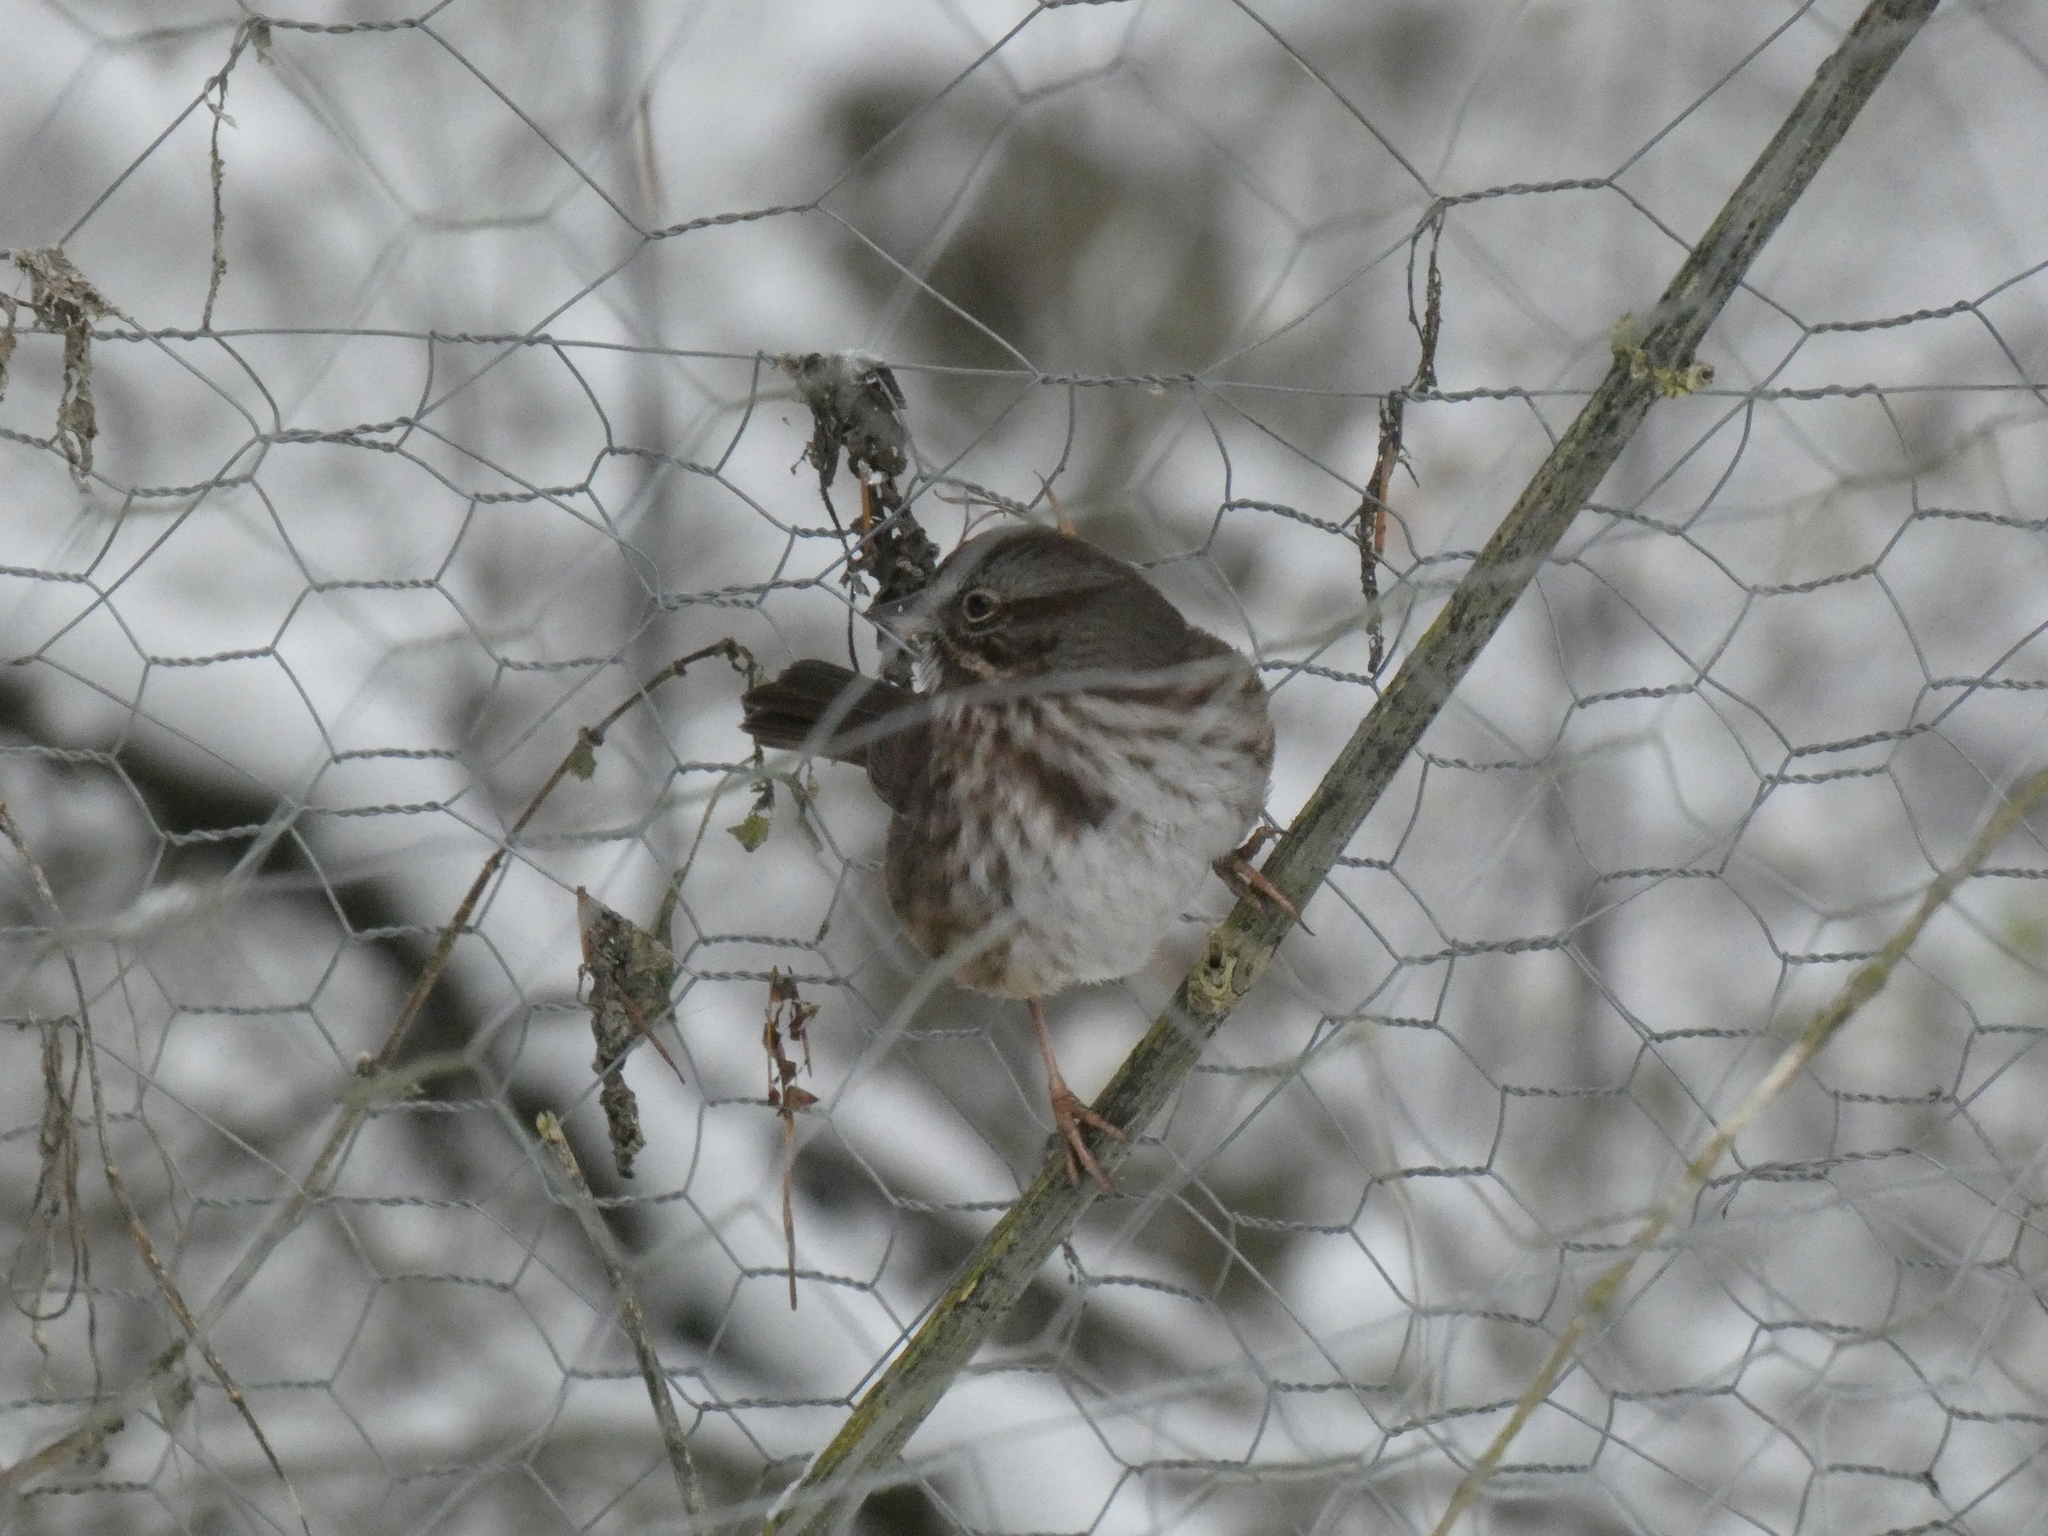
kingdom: Animalia
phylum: Chordata
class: Aves
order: Passeriformes
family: Passerellidae
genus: Melospiza
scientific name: Melospiza melodia
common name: Song sparrow
